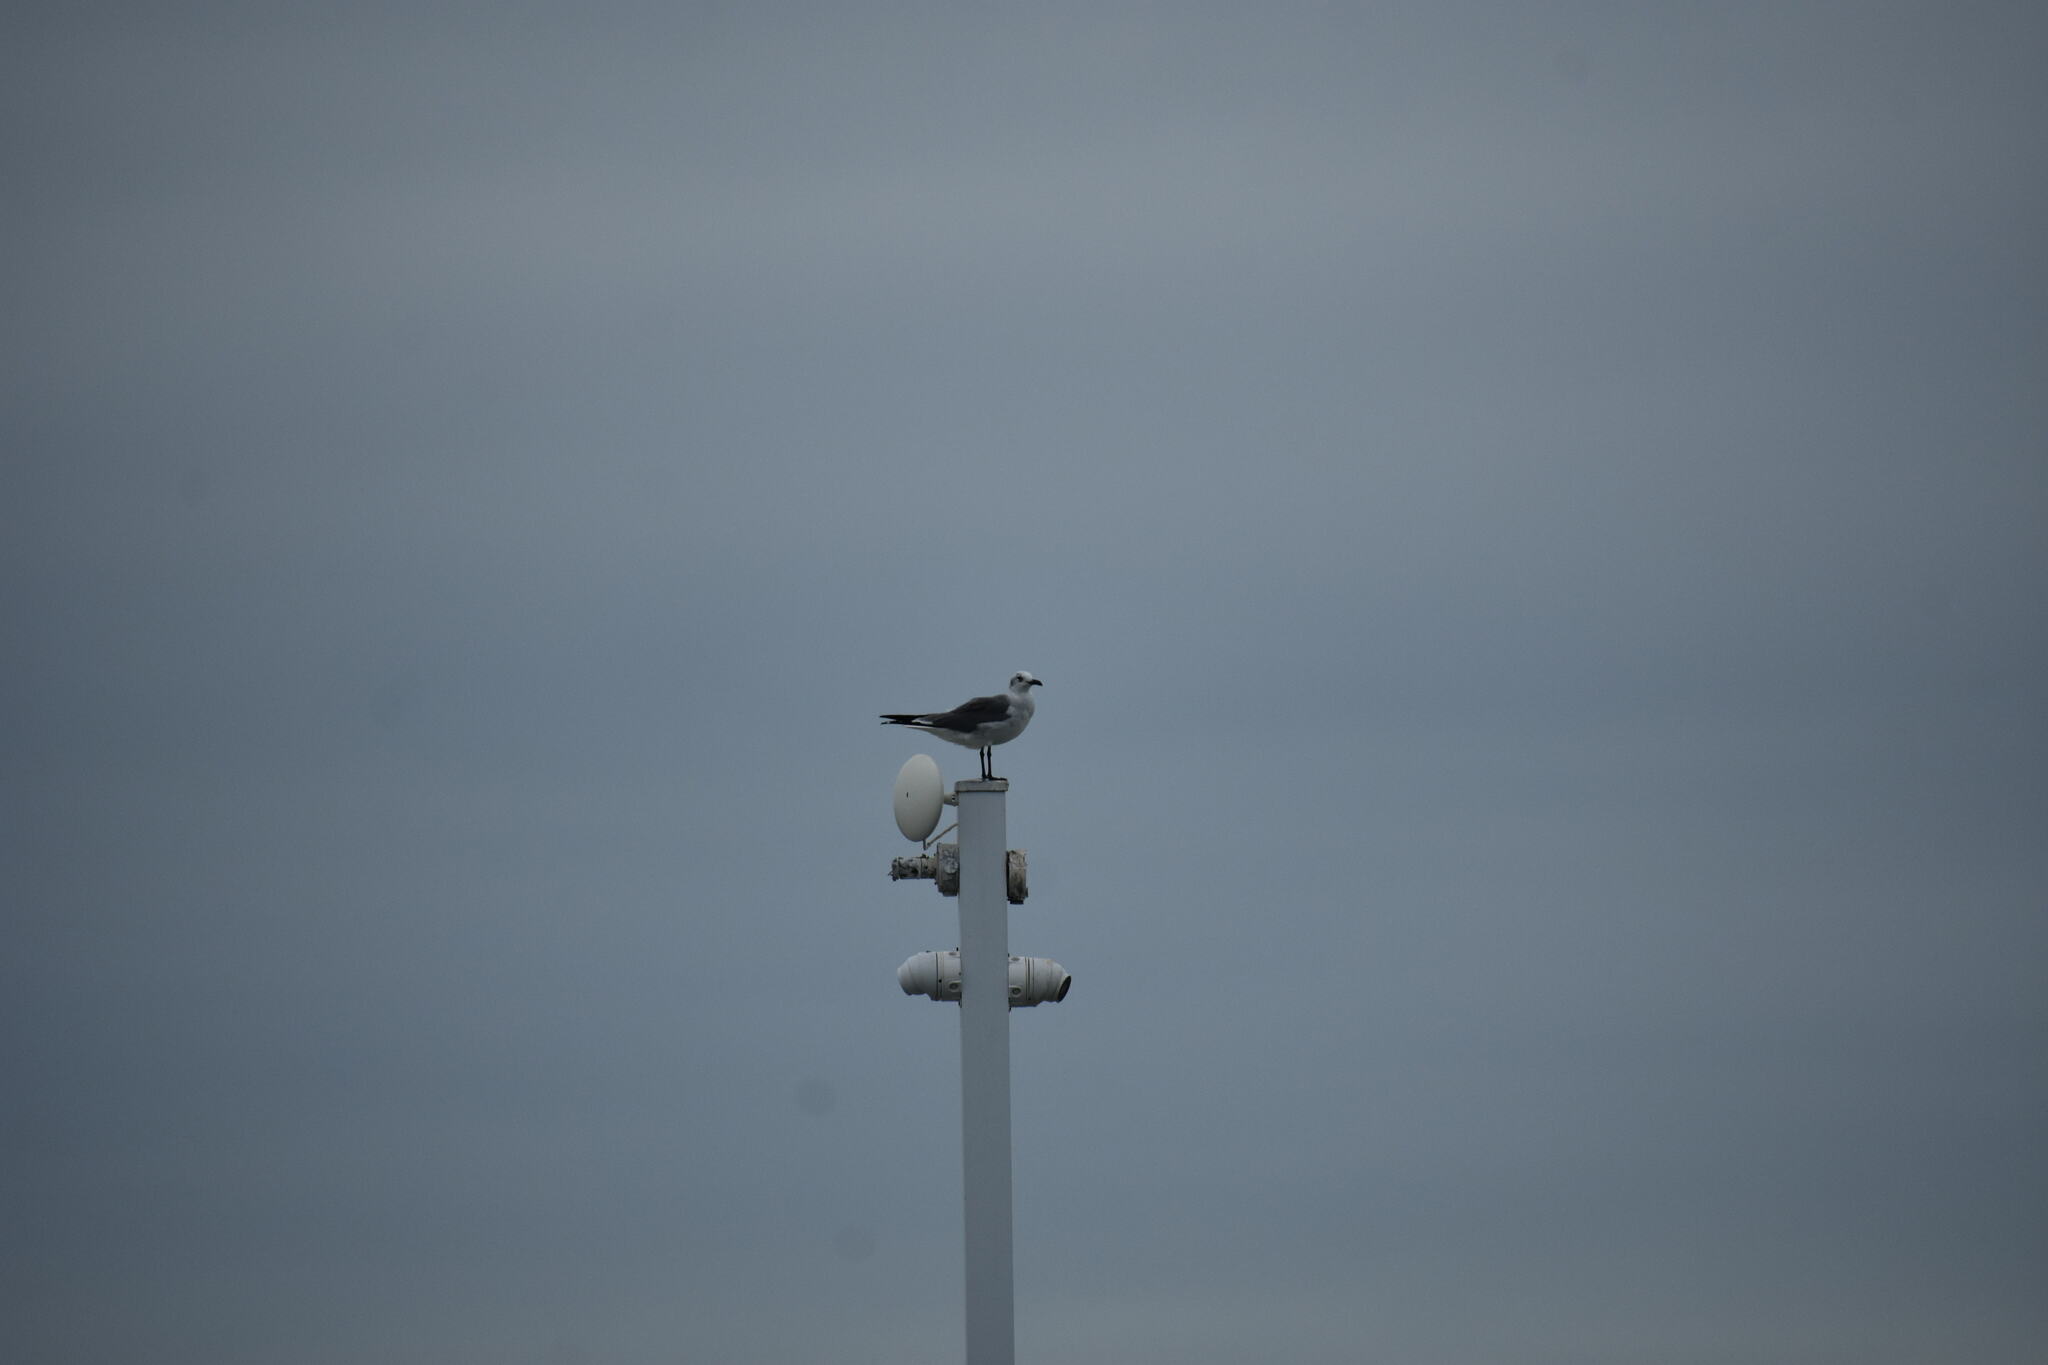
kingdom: Animalia
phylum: Chordata
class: Aves
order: Charadriiformes
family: Laridae
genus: Leucophaeus
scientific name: Leucophaeus atricilla
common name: Laughing gull
